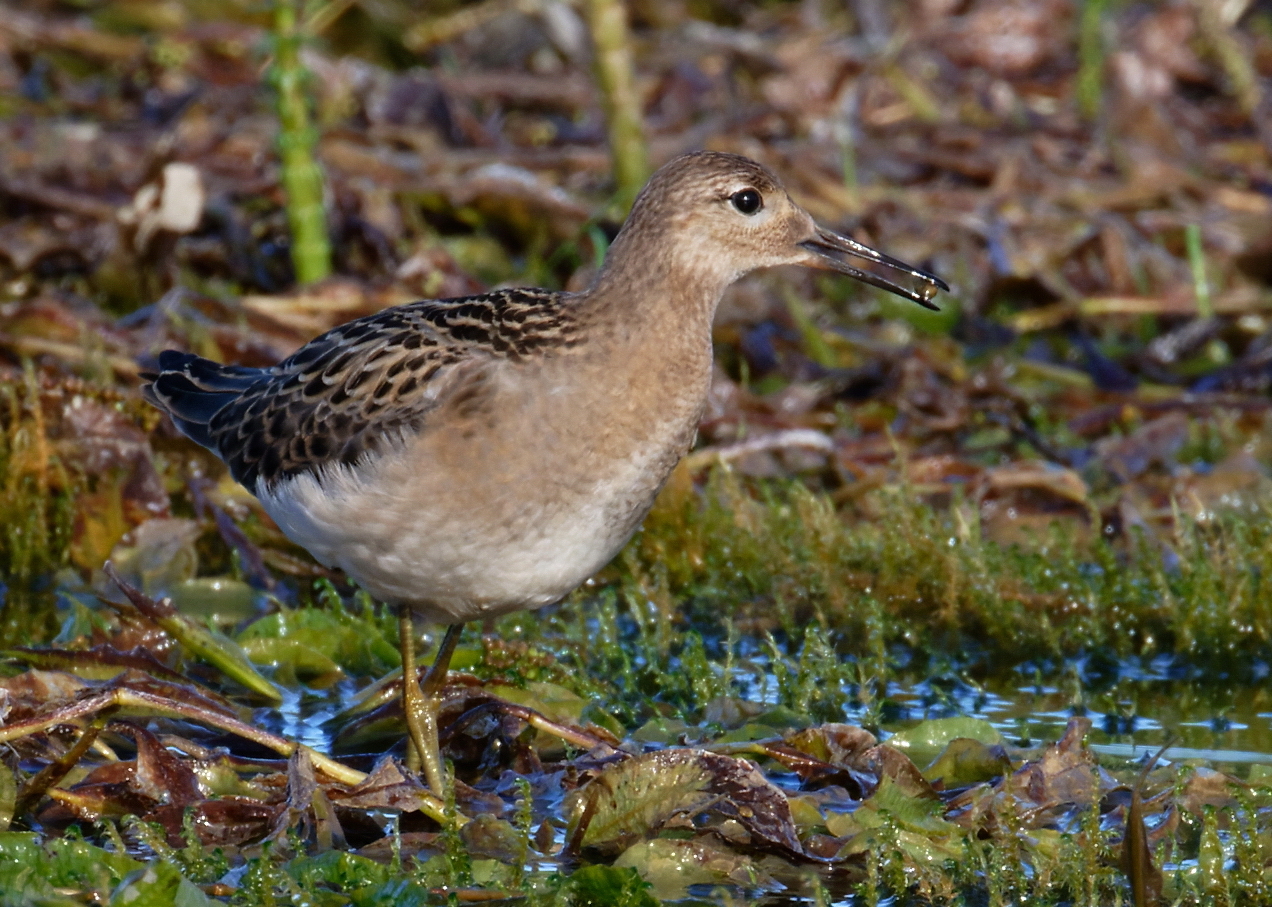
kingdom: Animalia
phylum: Chordata
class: Aves
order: Charadriiformes
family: Scolopacidae
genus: Calidris
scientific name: Calidris pugnax
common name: Ruff
